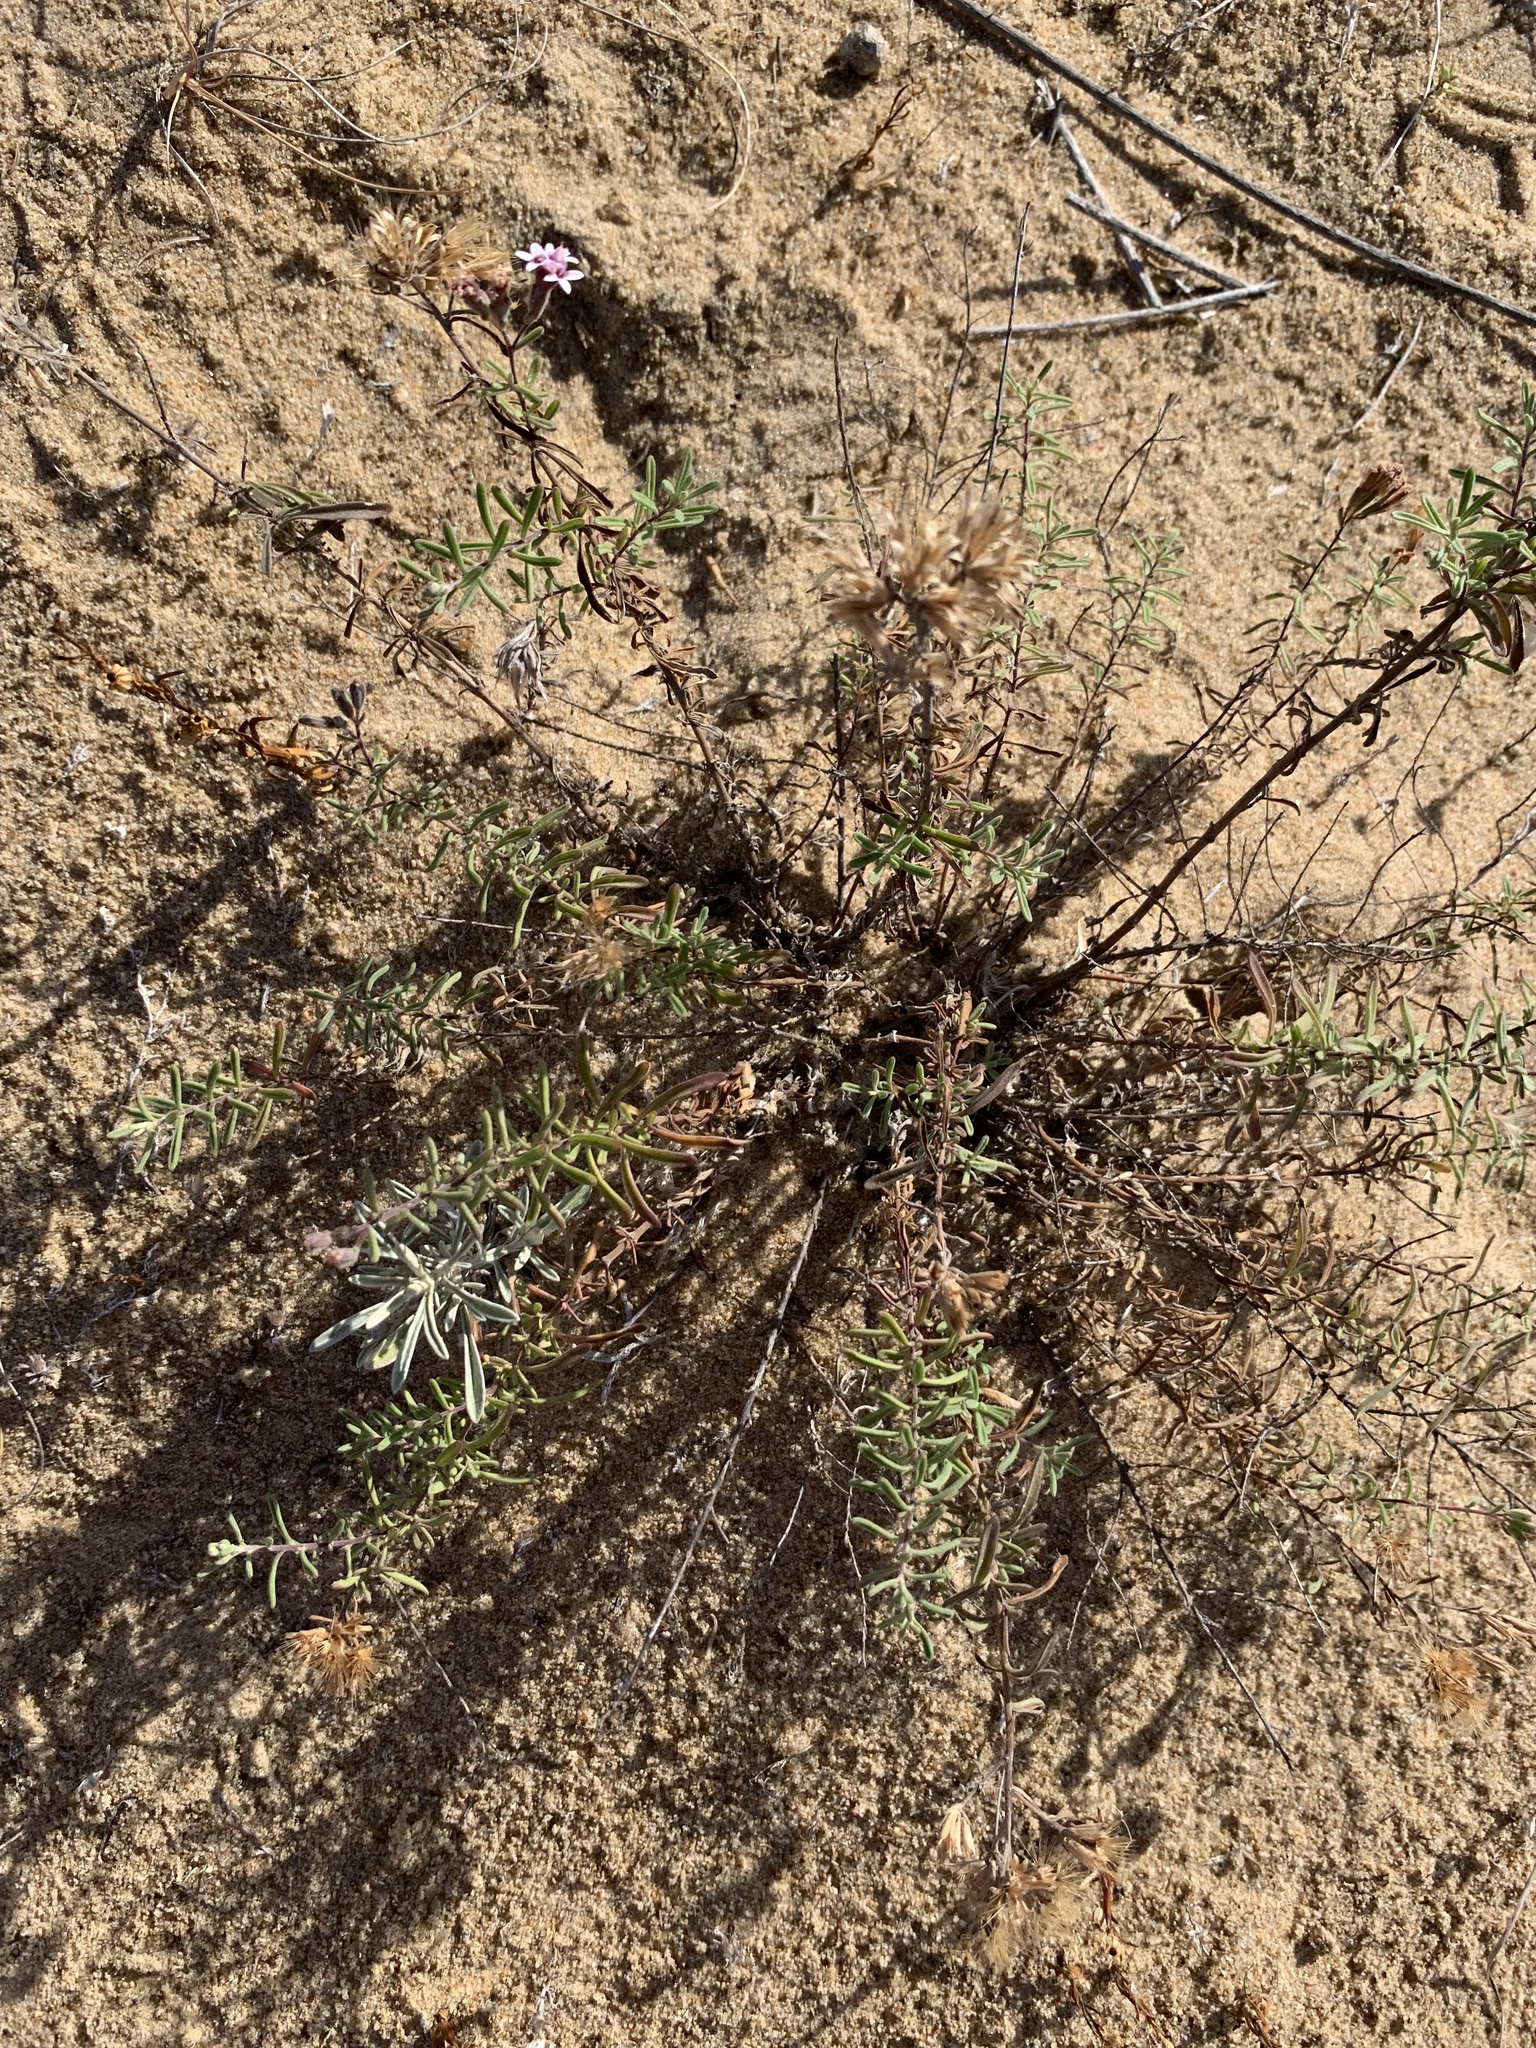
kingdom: Plantae
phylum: Tracheophyta
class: Magnoliopsida
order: Asterales
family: Asteraceae
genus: Stevia
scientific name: Stevia satureifolia
